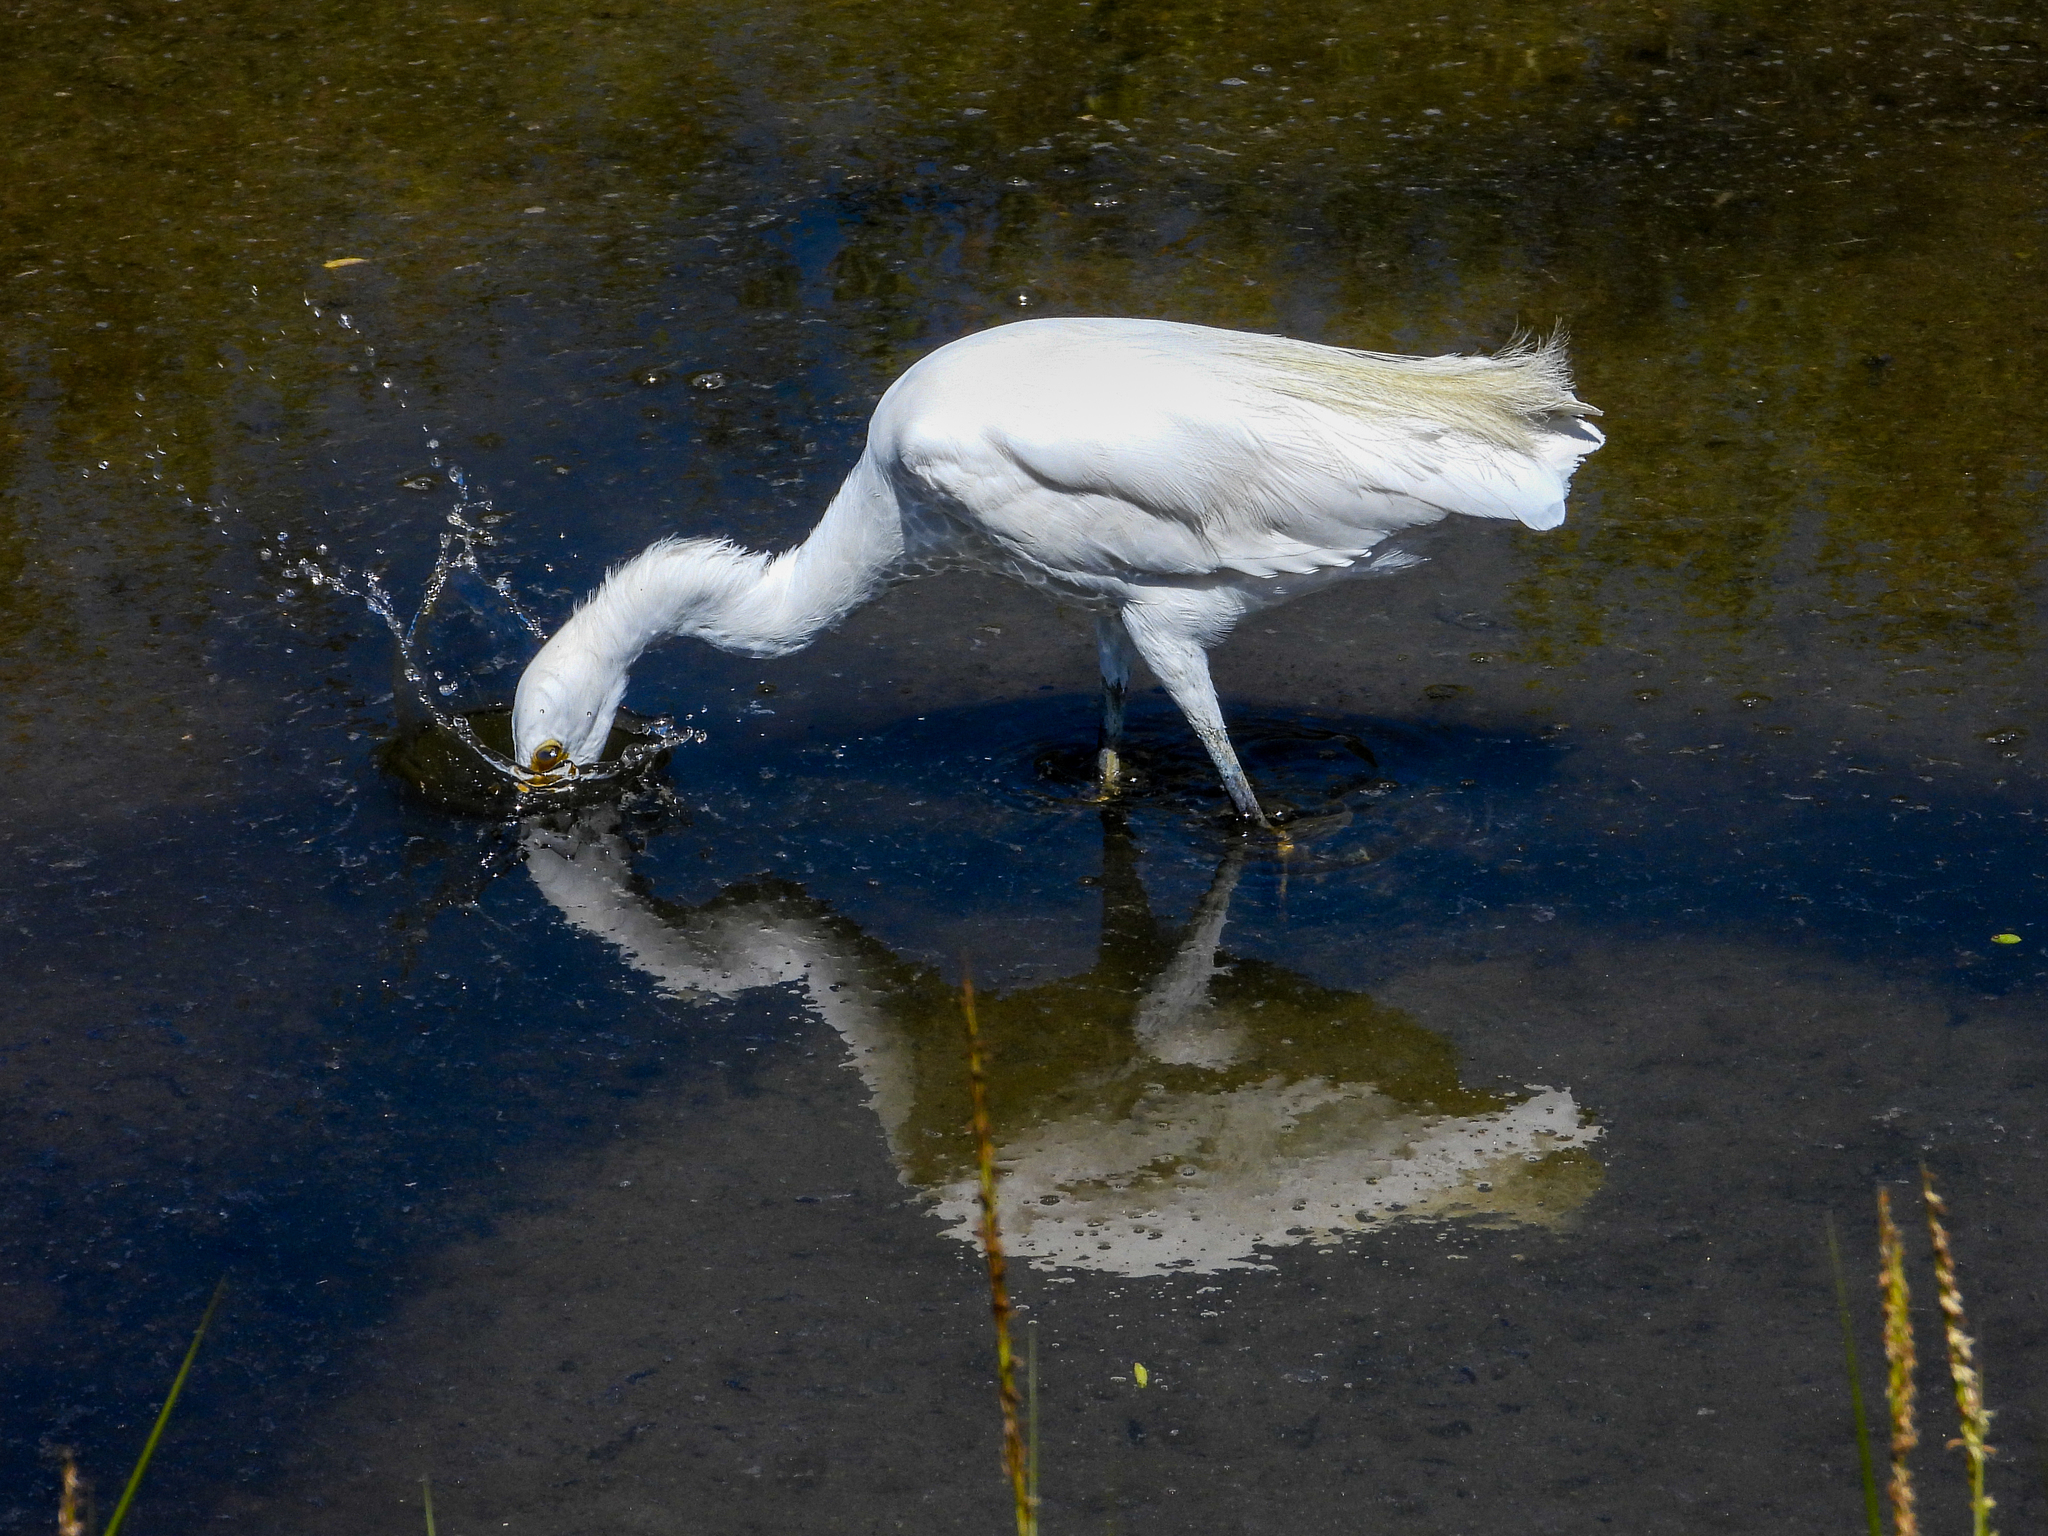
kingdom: Animalia
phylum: Chordata
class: Aves
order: Pelecaniformes
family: Ardeidae
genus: Egretta
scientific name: Egretta thula
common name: Snowy egret
